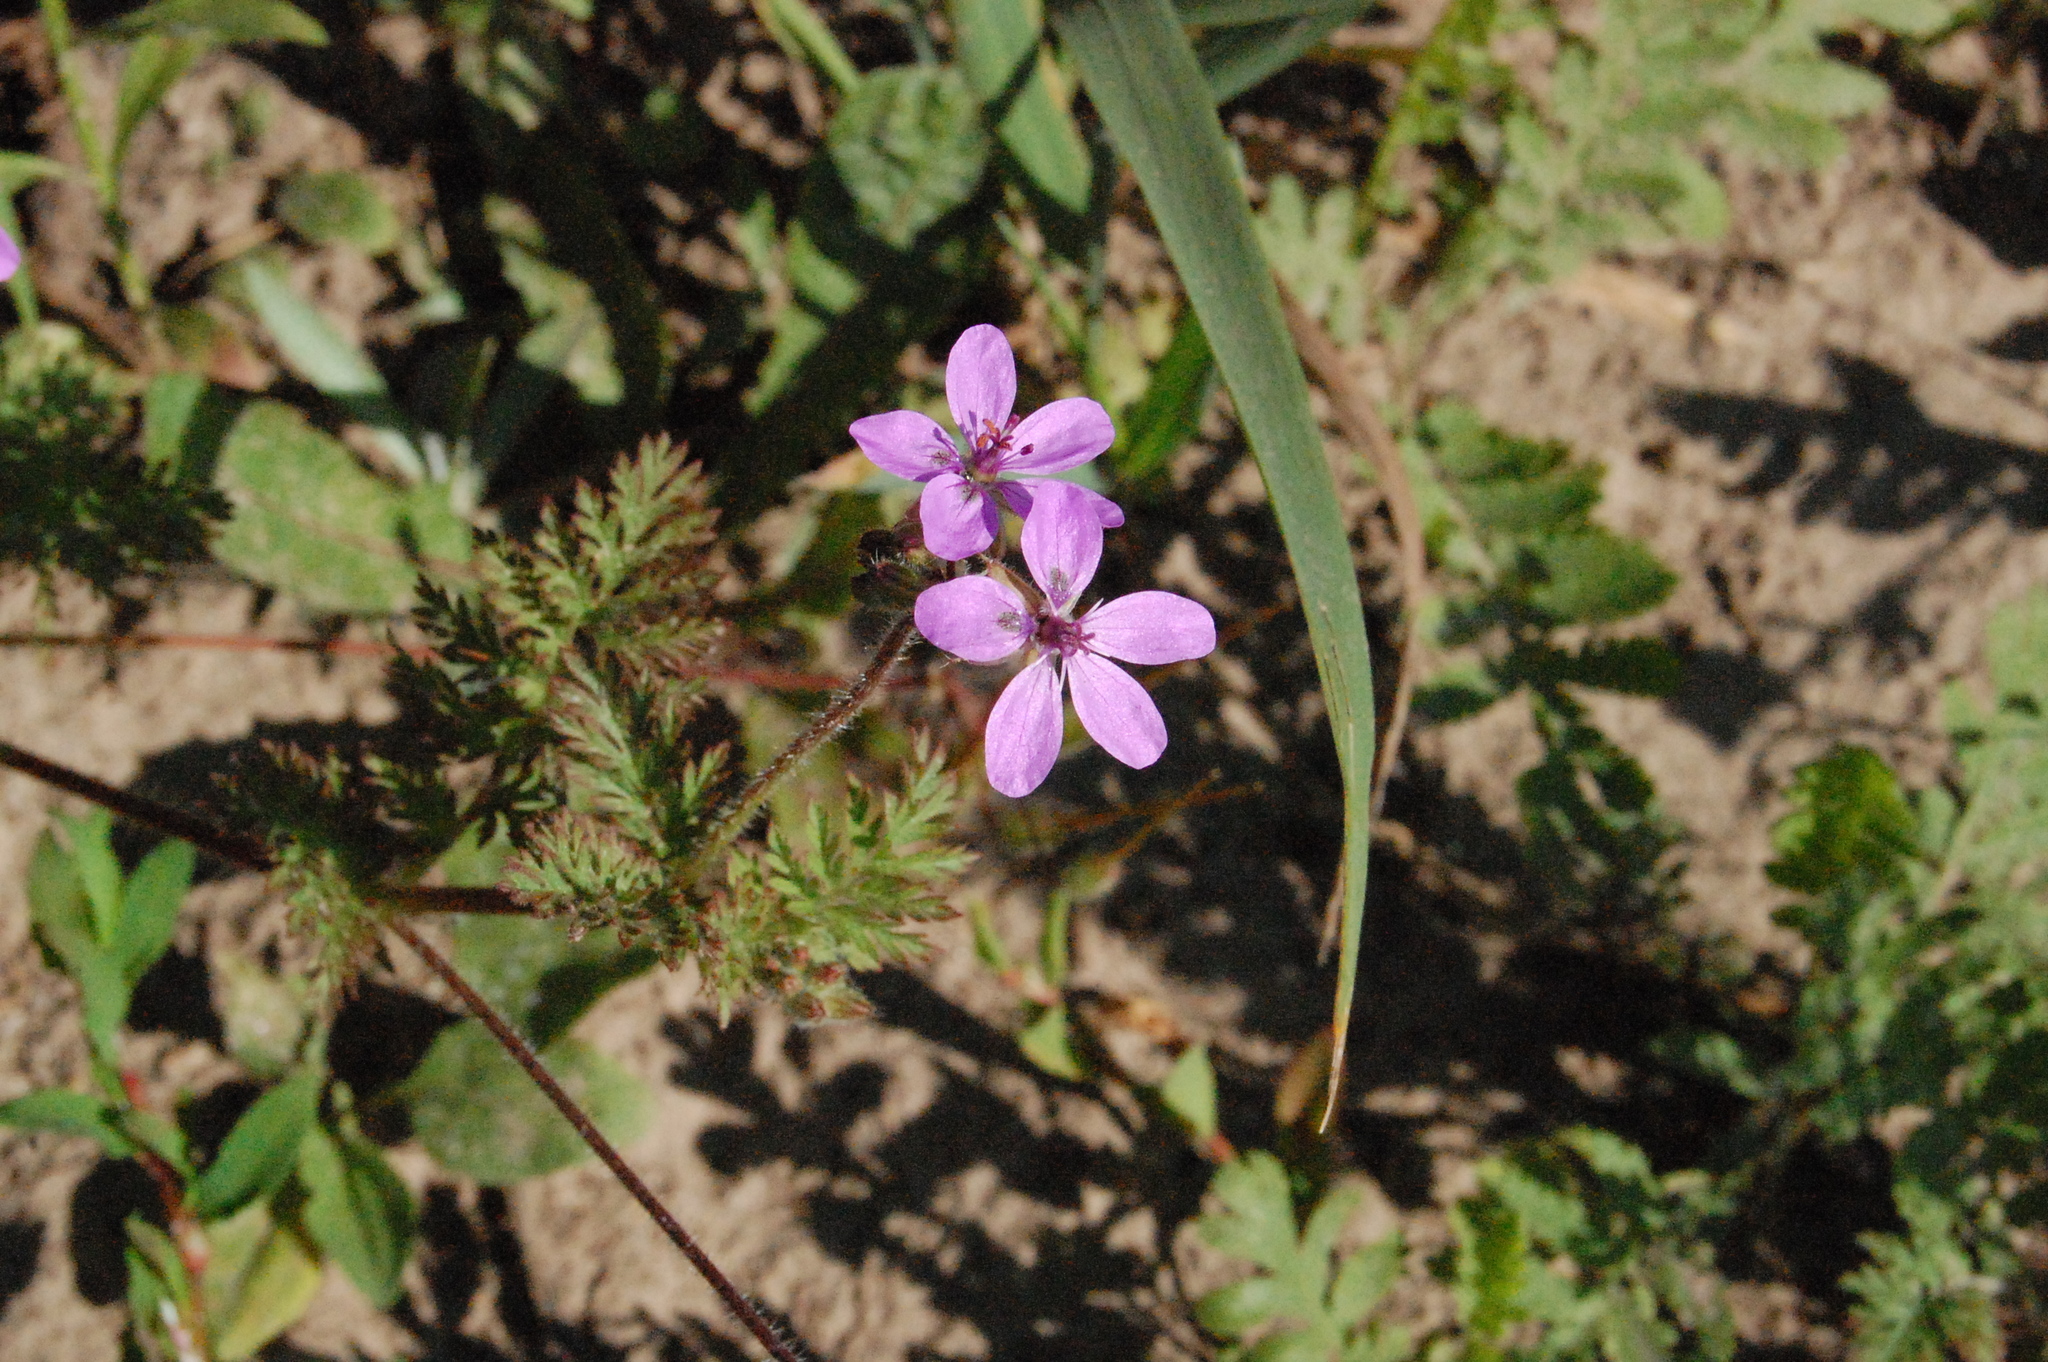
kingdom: Plantae
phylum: Tracheophyta
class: Magnoliopsida
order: Geraniales
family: Geraniaceae
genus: Erodium
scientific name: Erodium cicutarium
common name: Common stork's-bill
